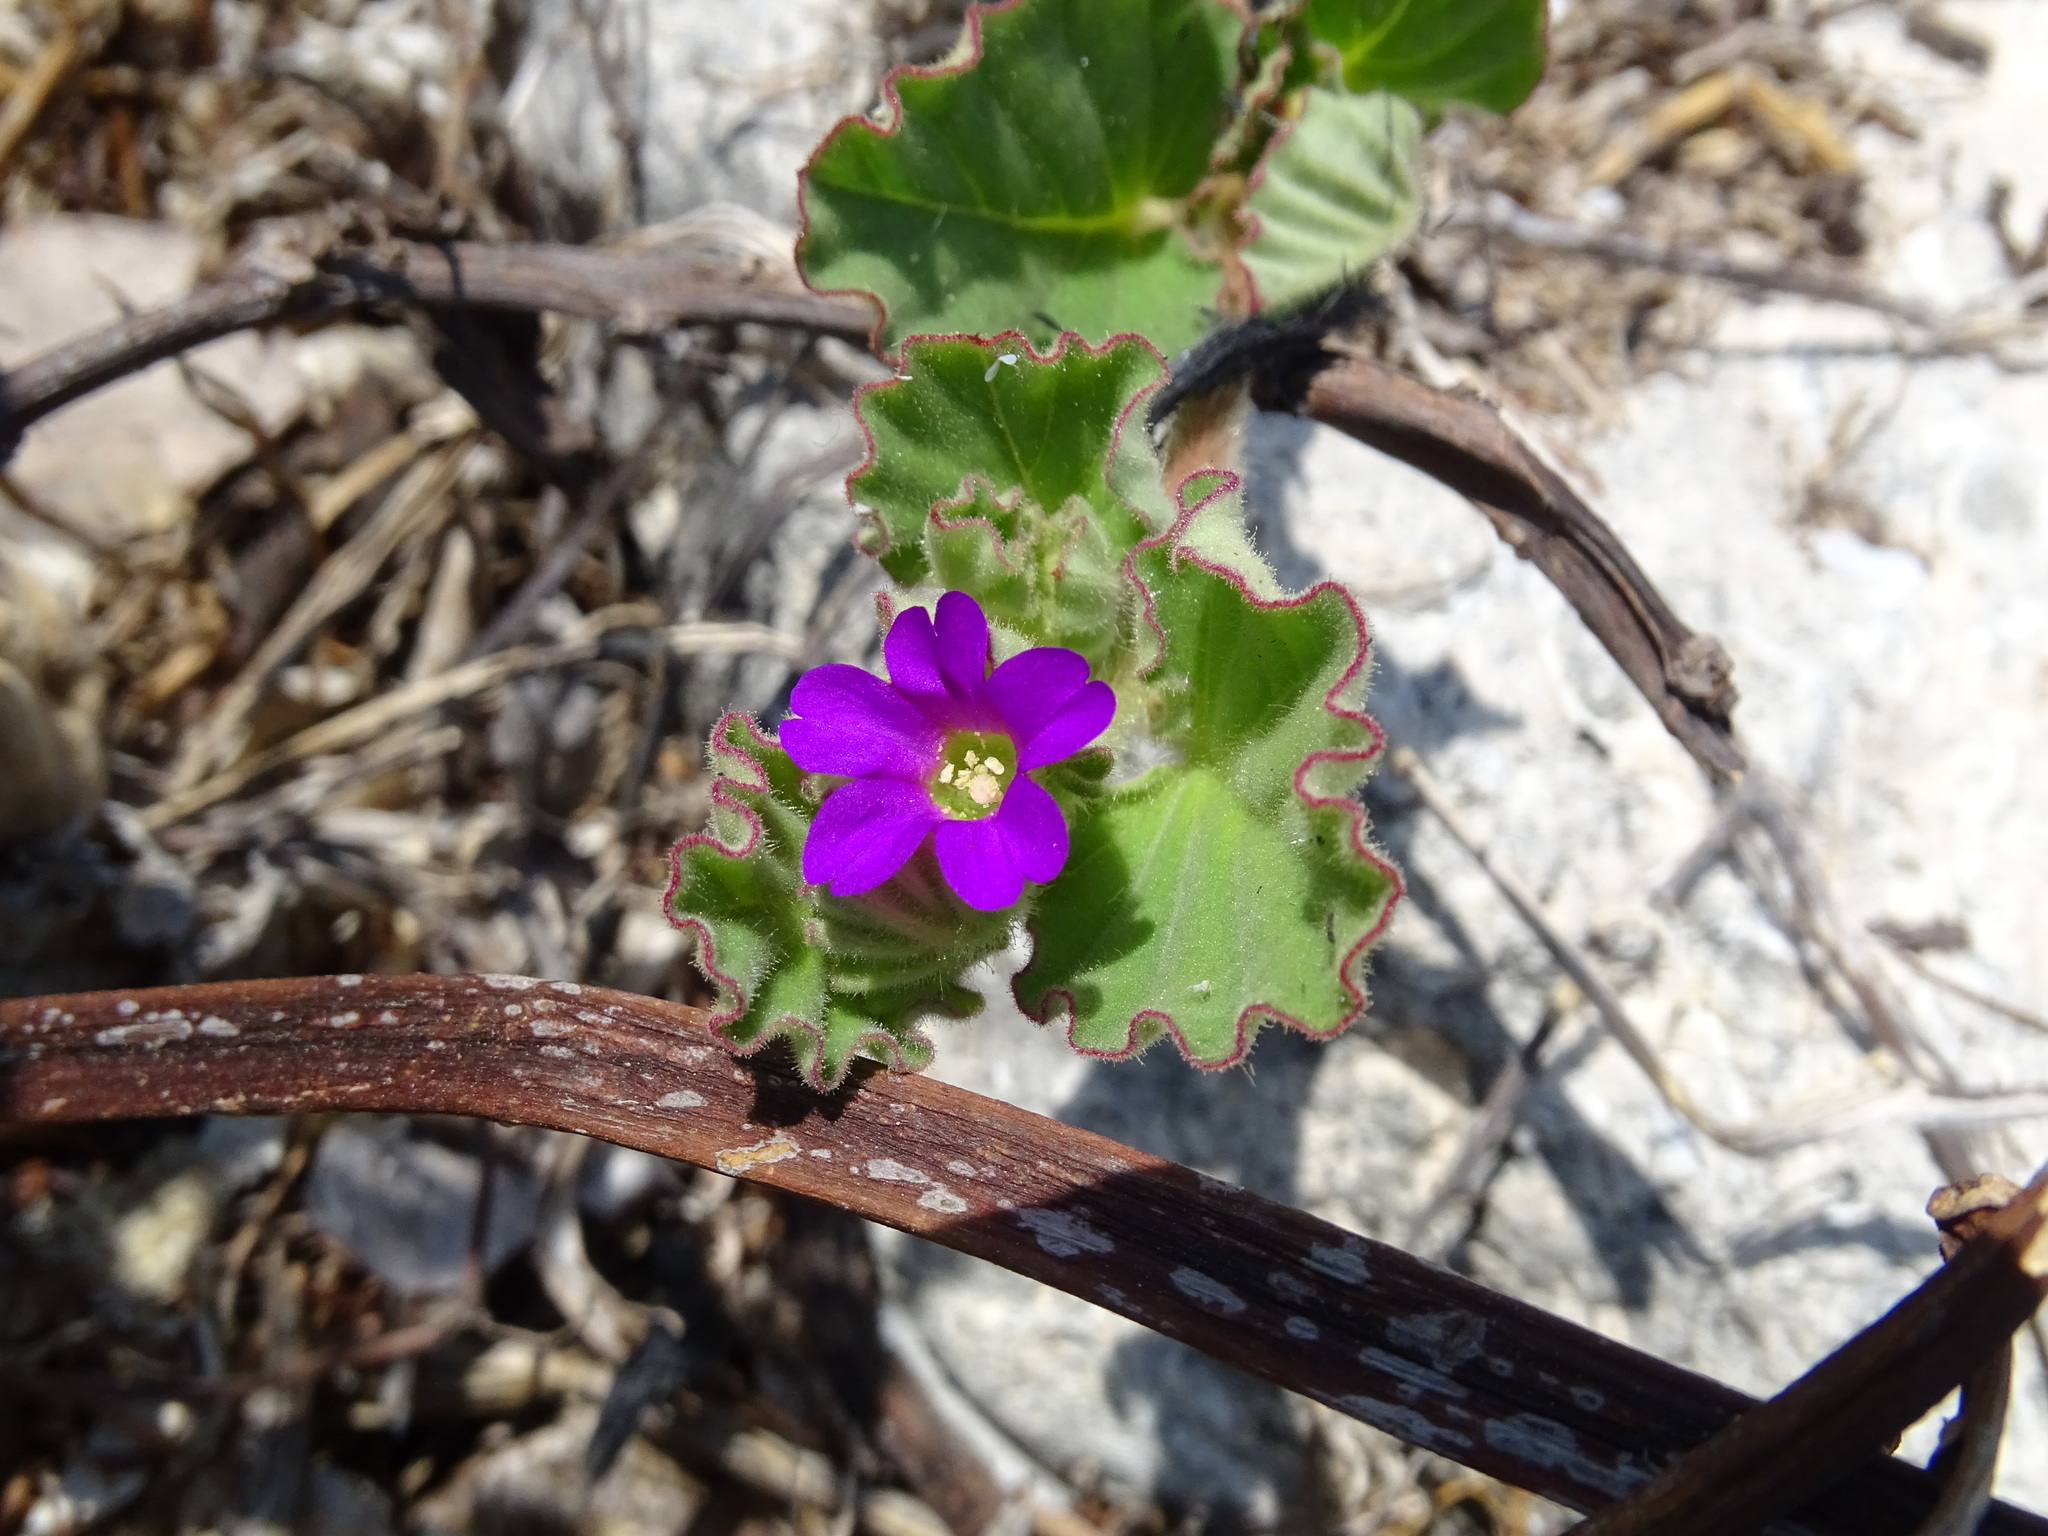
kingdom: Plantae
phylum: Tracheophyta
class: Magnoliopsida
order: Caryophyllales
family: Nyctaginaceae
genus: Okenia
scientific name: Okenia hypogaea
